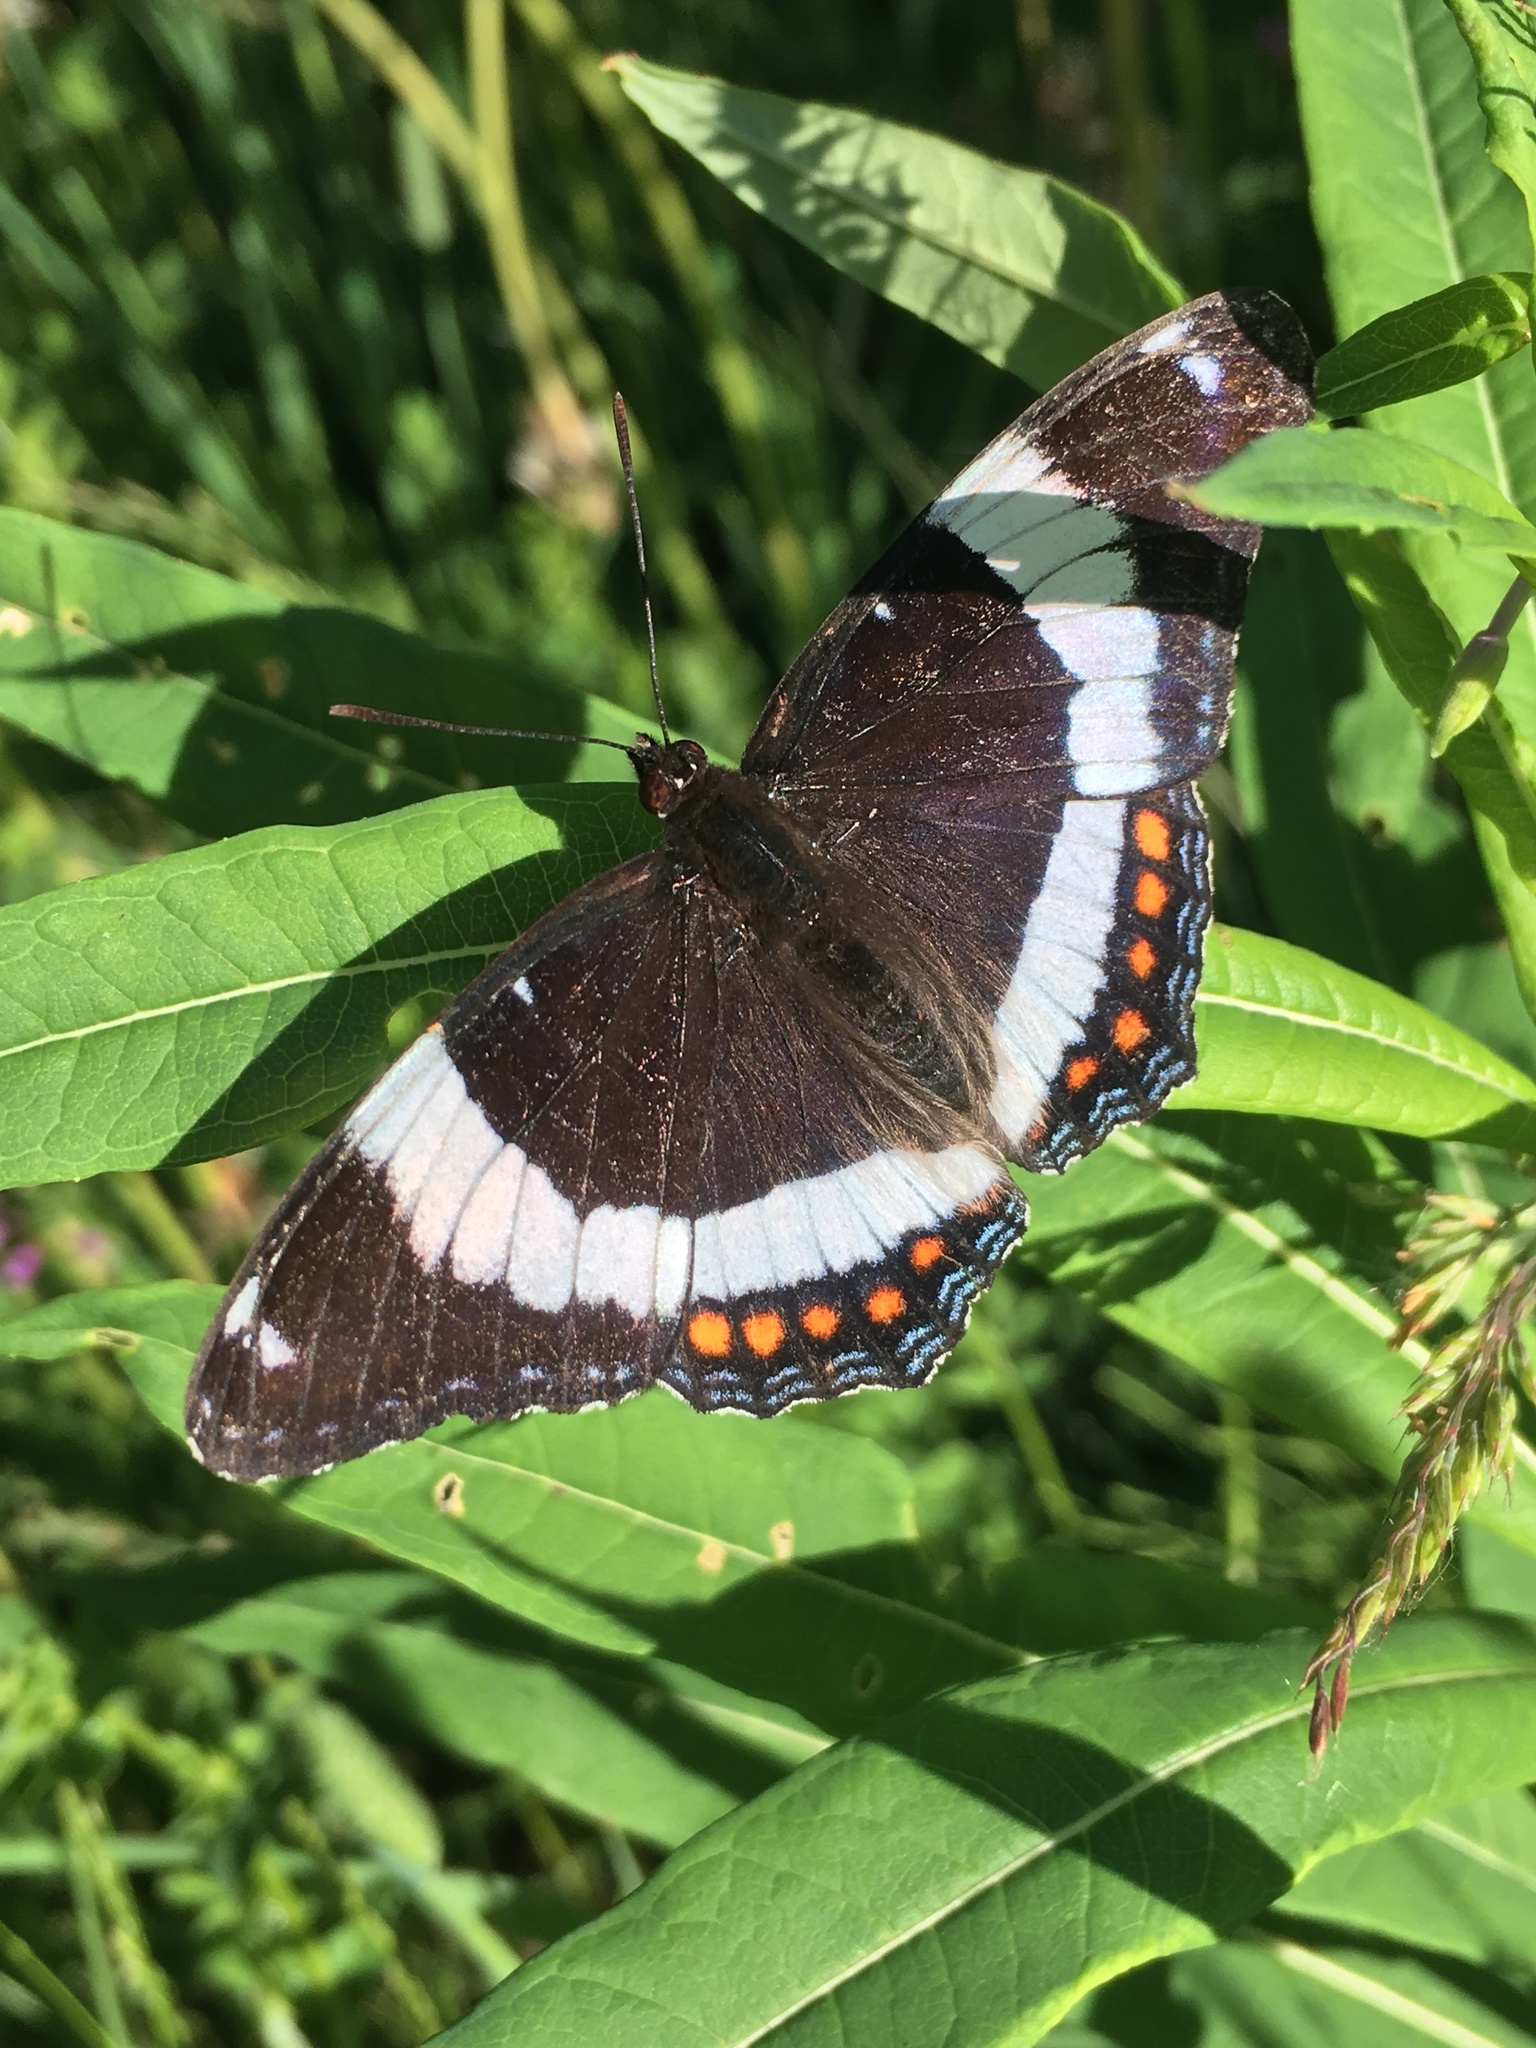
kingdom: Animalia
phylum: Arthropoda
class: Insecta
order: Lepidoptera
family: Nymphalidae
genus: Limenitis
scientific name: Limenitis arthemis
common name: Red-spotted admiral
